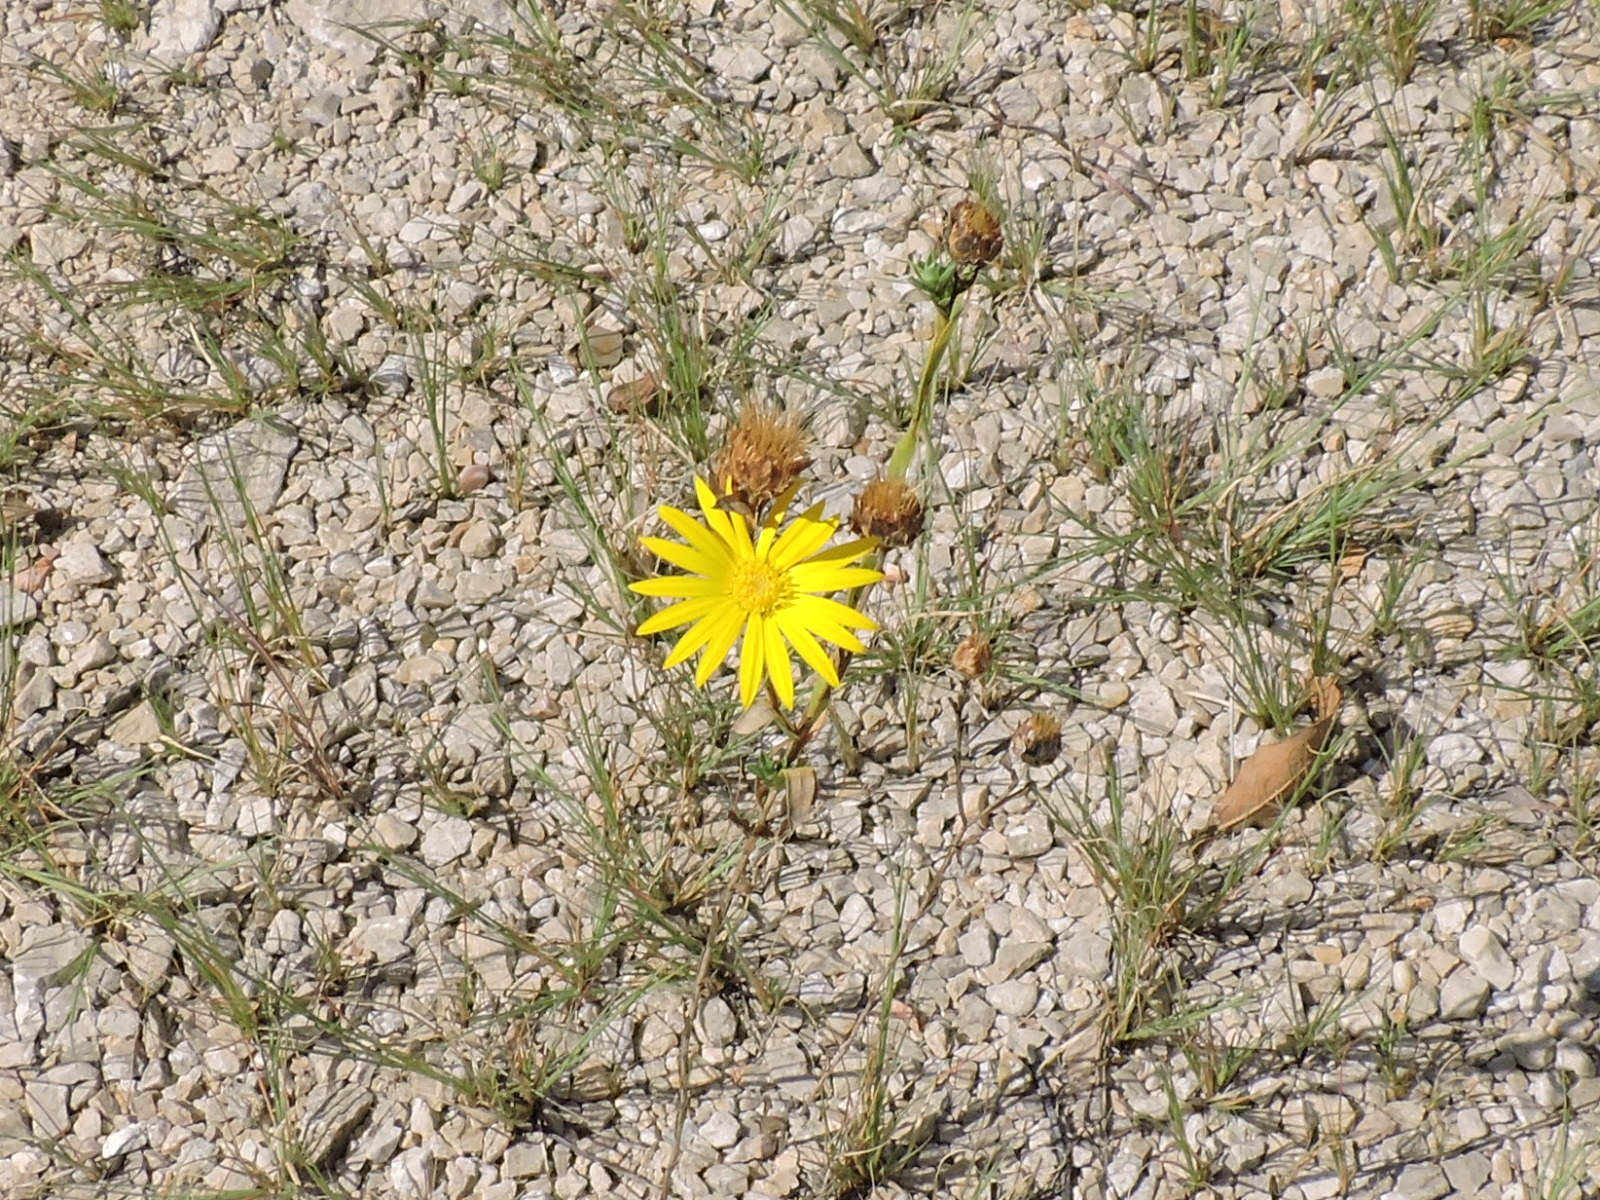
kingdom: Plantae
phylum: Tracheophyta
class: Magnoliopsida
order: Asterales
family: Asteraceae
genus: Xanthisma
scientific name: Xanthisma texanum
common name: Texas sleepy daisy
